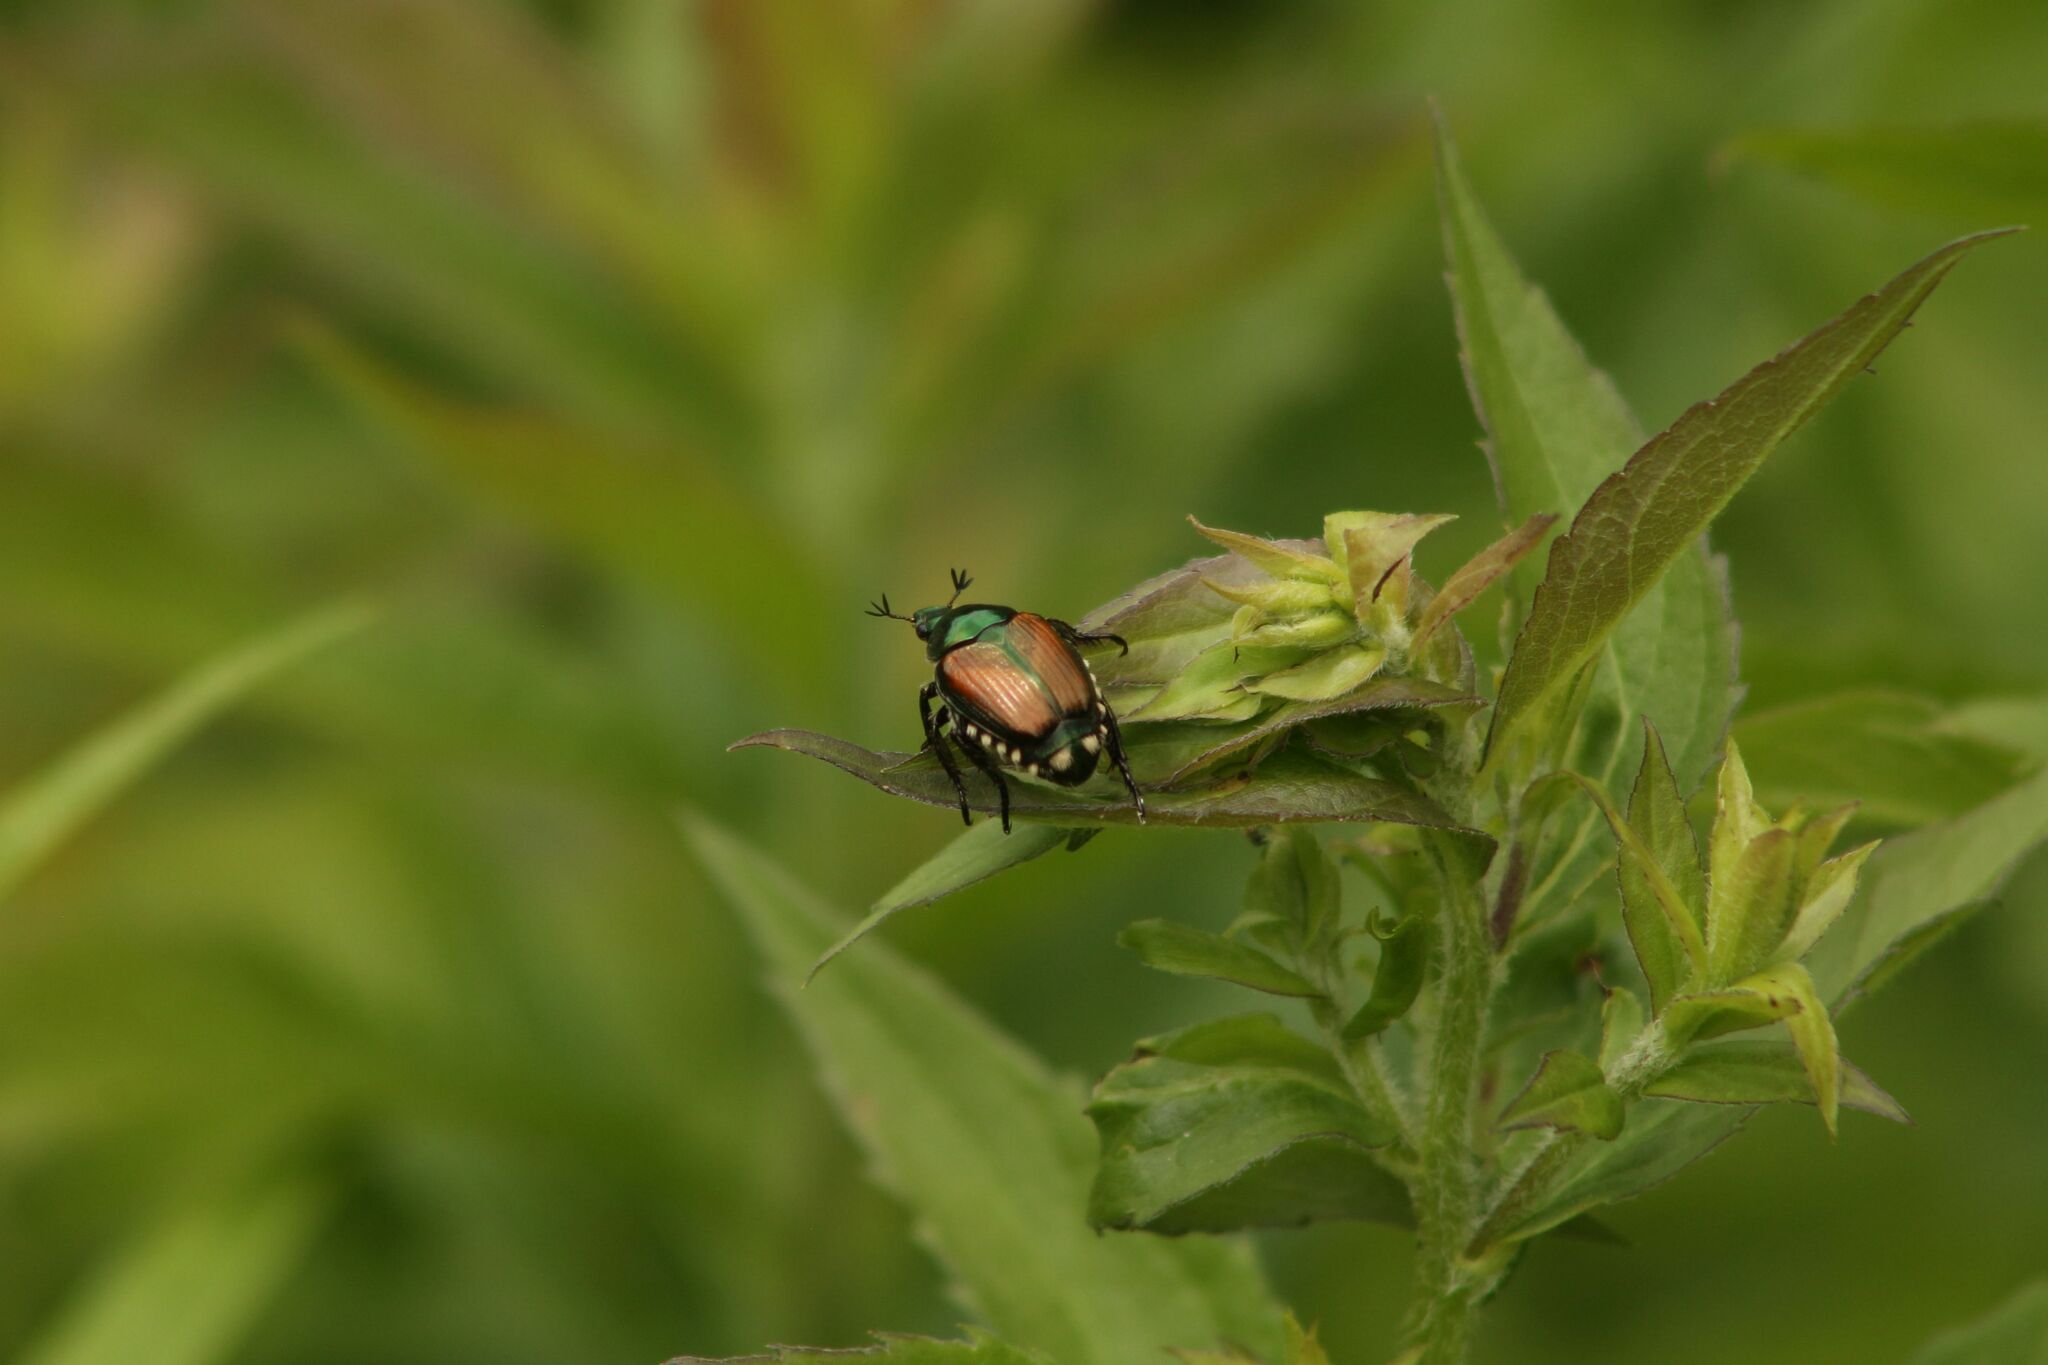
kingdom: Animalia
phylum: Arthropoda
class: Insecta
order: Coleoptera
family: Scarabaeidae
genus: Popillia
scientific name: Popillia japonica
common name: Japanese beetle
